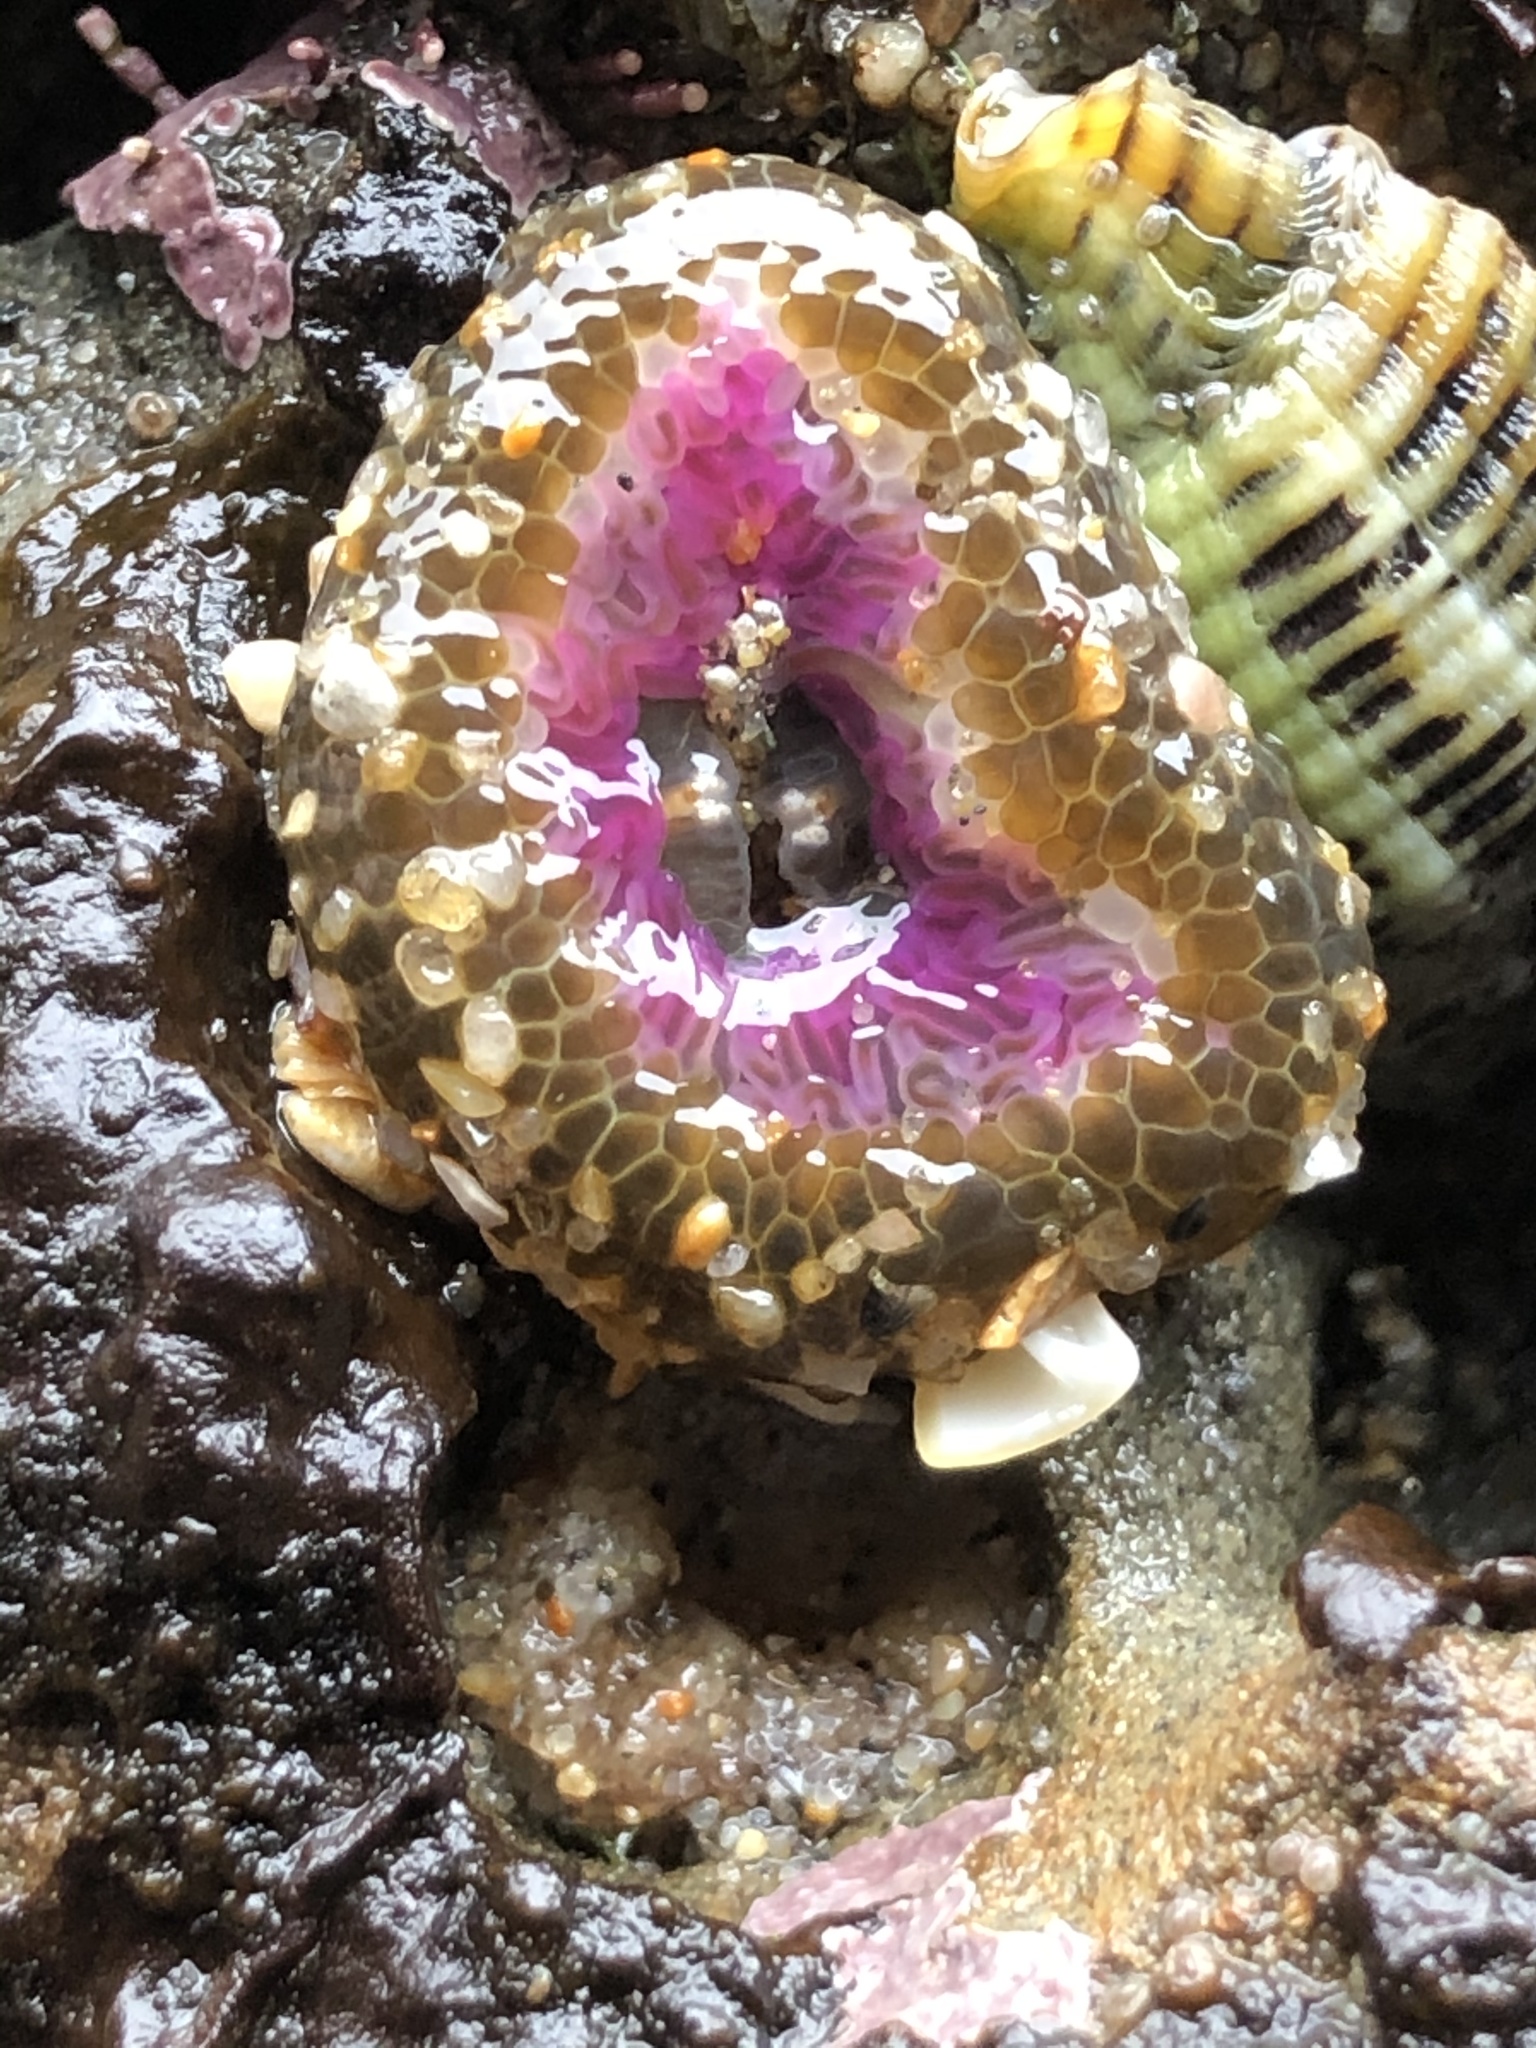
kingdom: Animalia
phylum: Cnidaria
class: Anthozoa
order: Actiniaria
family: Actiniidae
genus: Anthopleura
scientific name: Anthopleura elegantissima
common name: Clonal anemone
